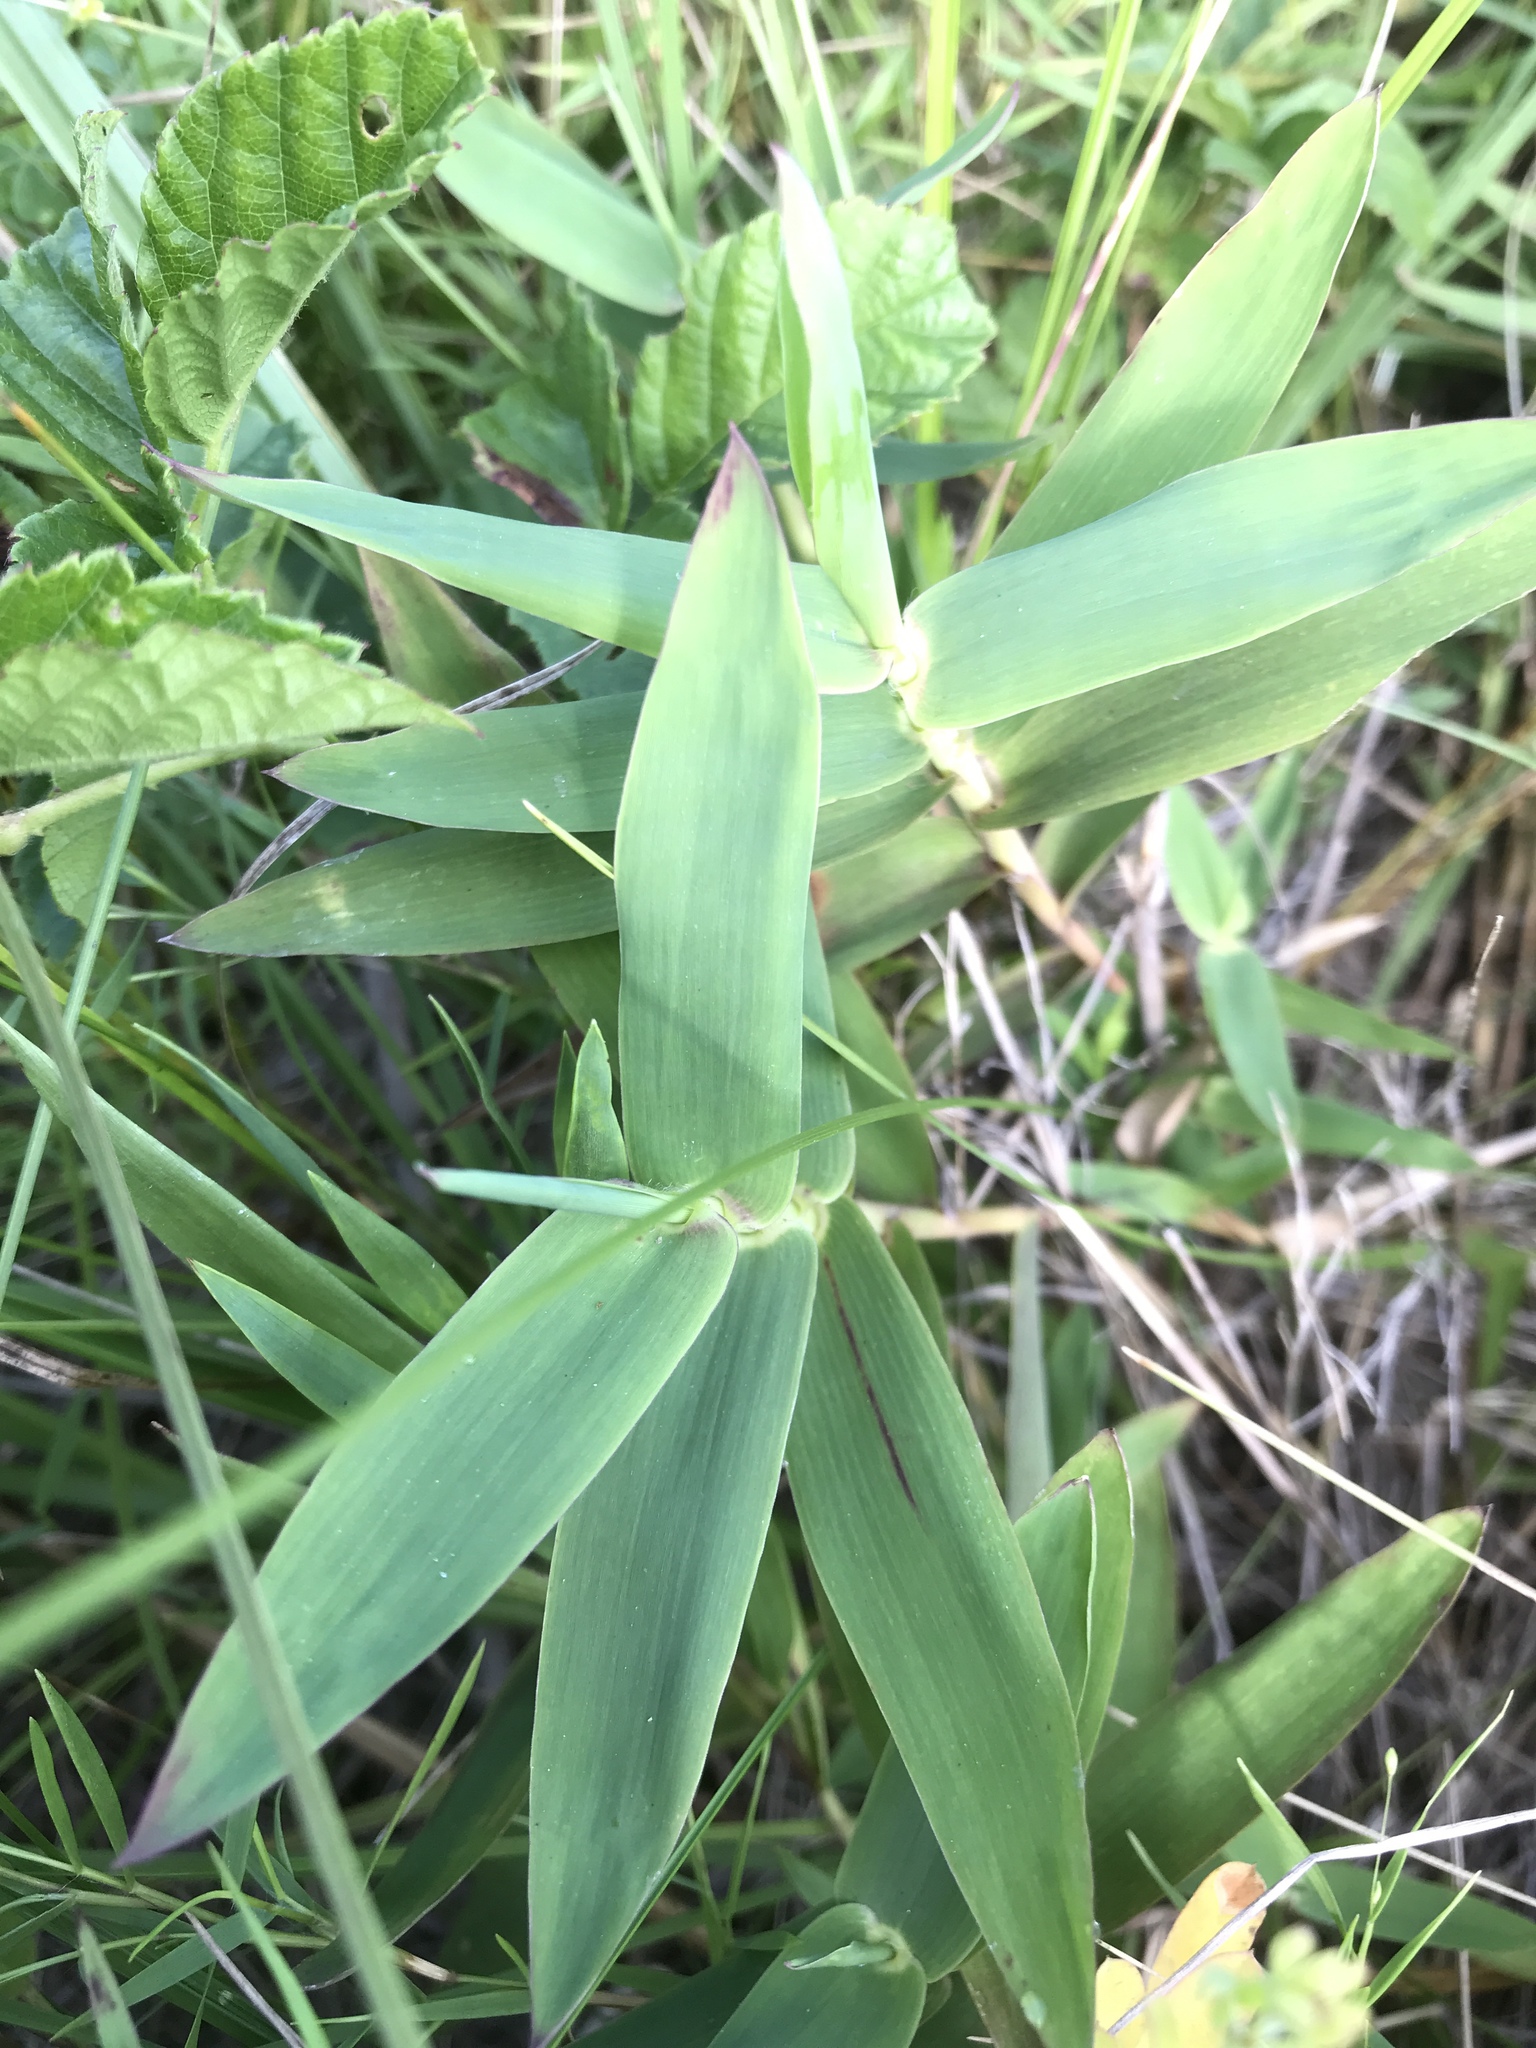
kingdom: Plantae
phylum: Tracheophyta
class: Liliopsida
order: Poales
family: Poaceae
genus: Gymnopogon
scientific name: Gymnopogon ambiguus
